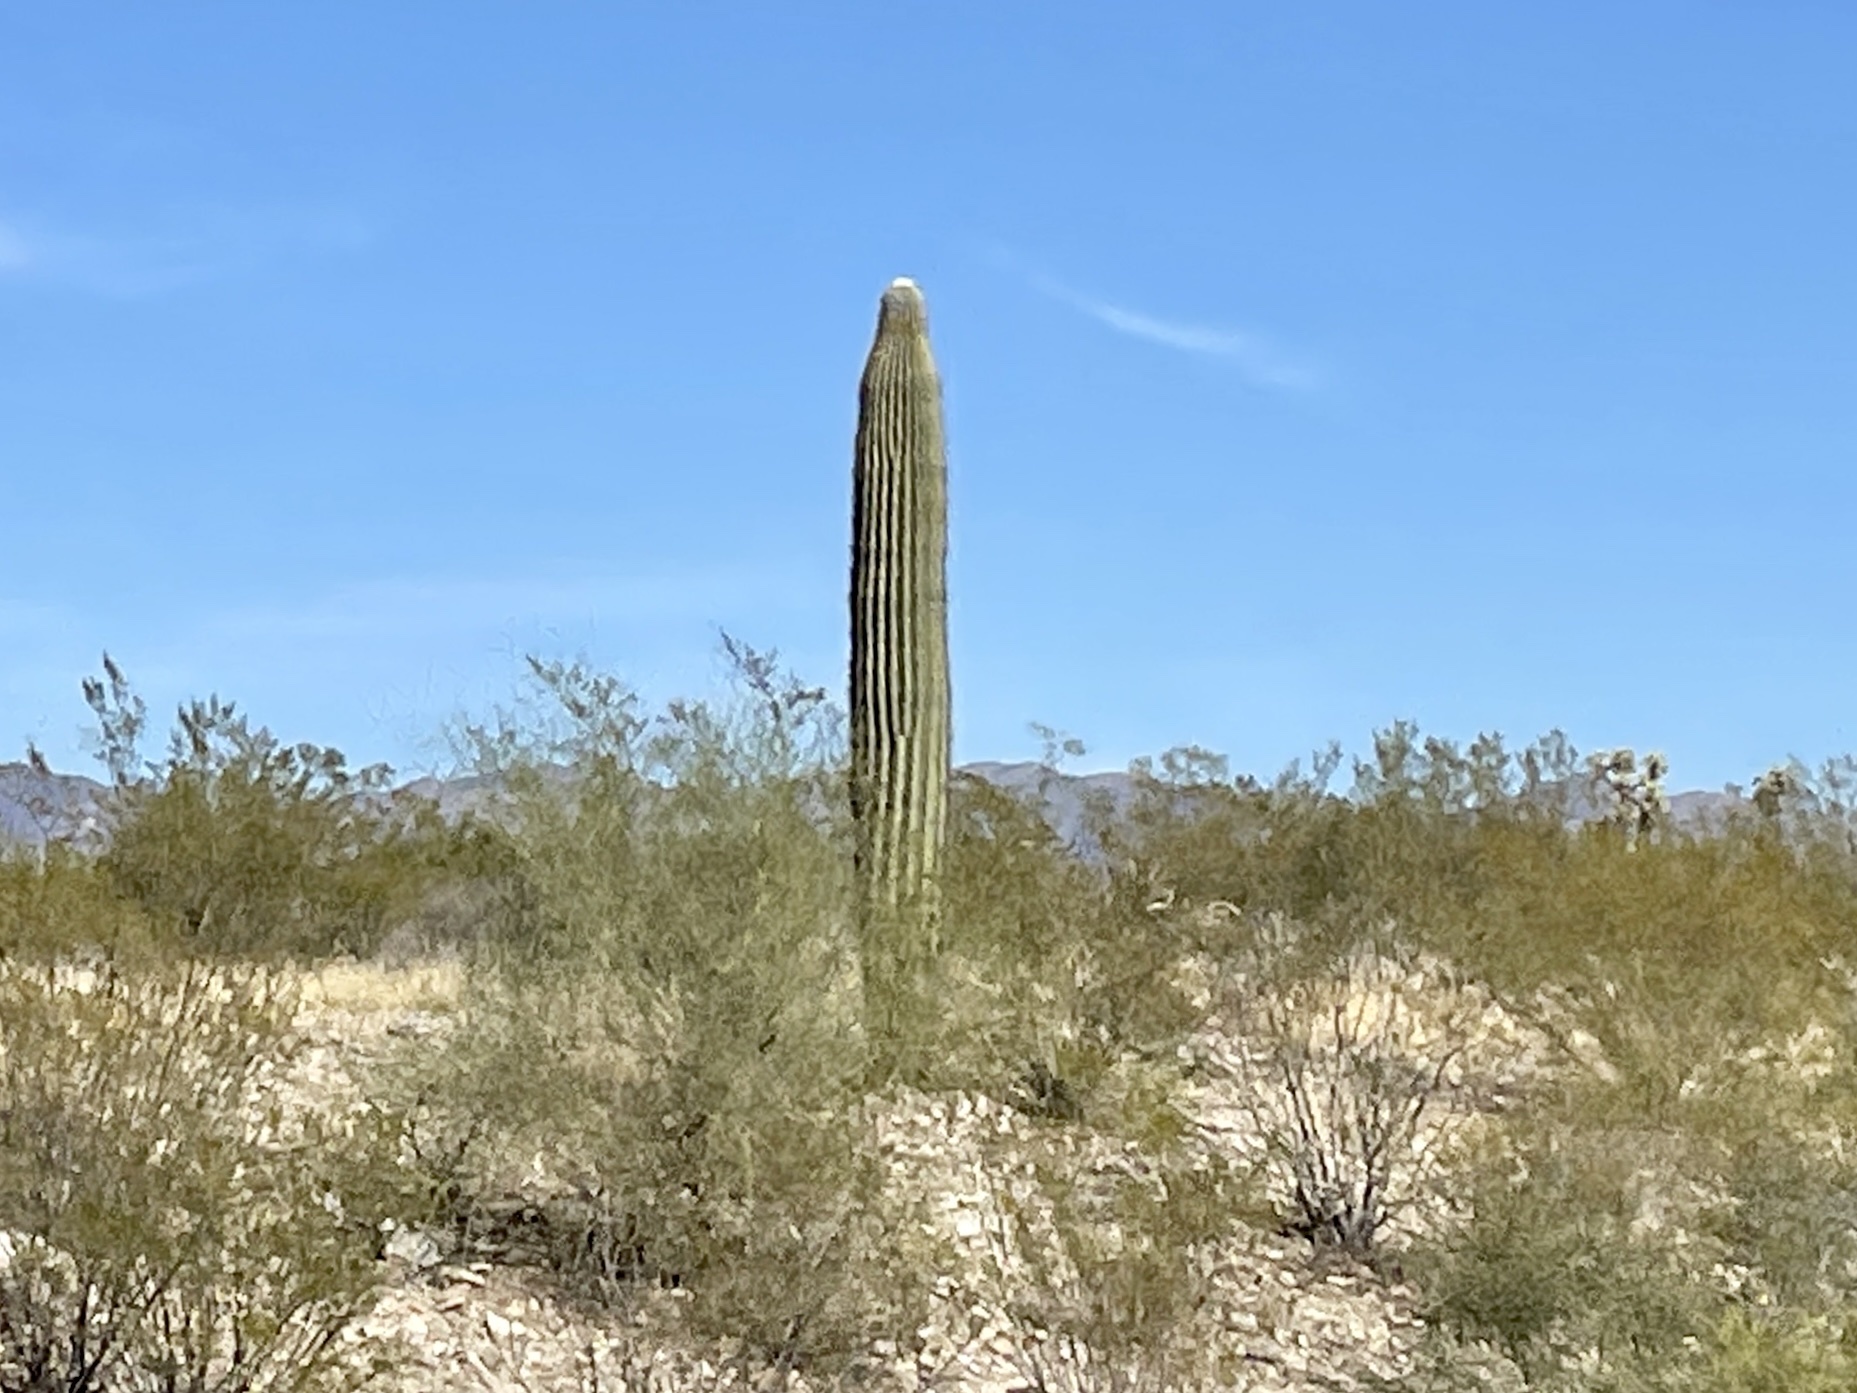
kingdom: Plantae
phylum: Tracheophyta
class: Magnoliopsida
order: Caryophyllales
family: Cactaceae
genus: Carnegiea
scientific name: Carnegiea gigantea
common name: Saguaro
